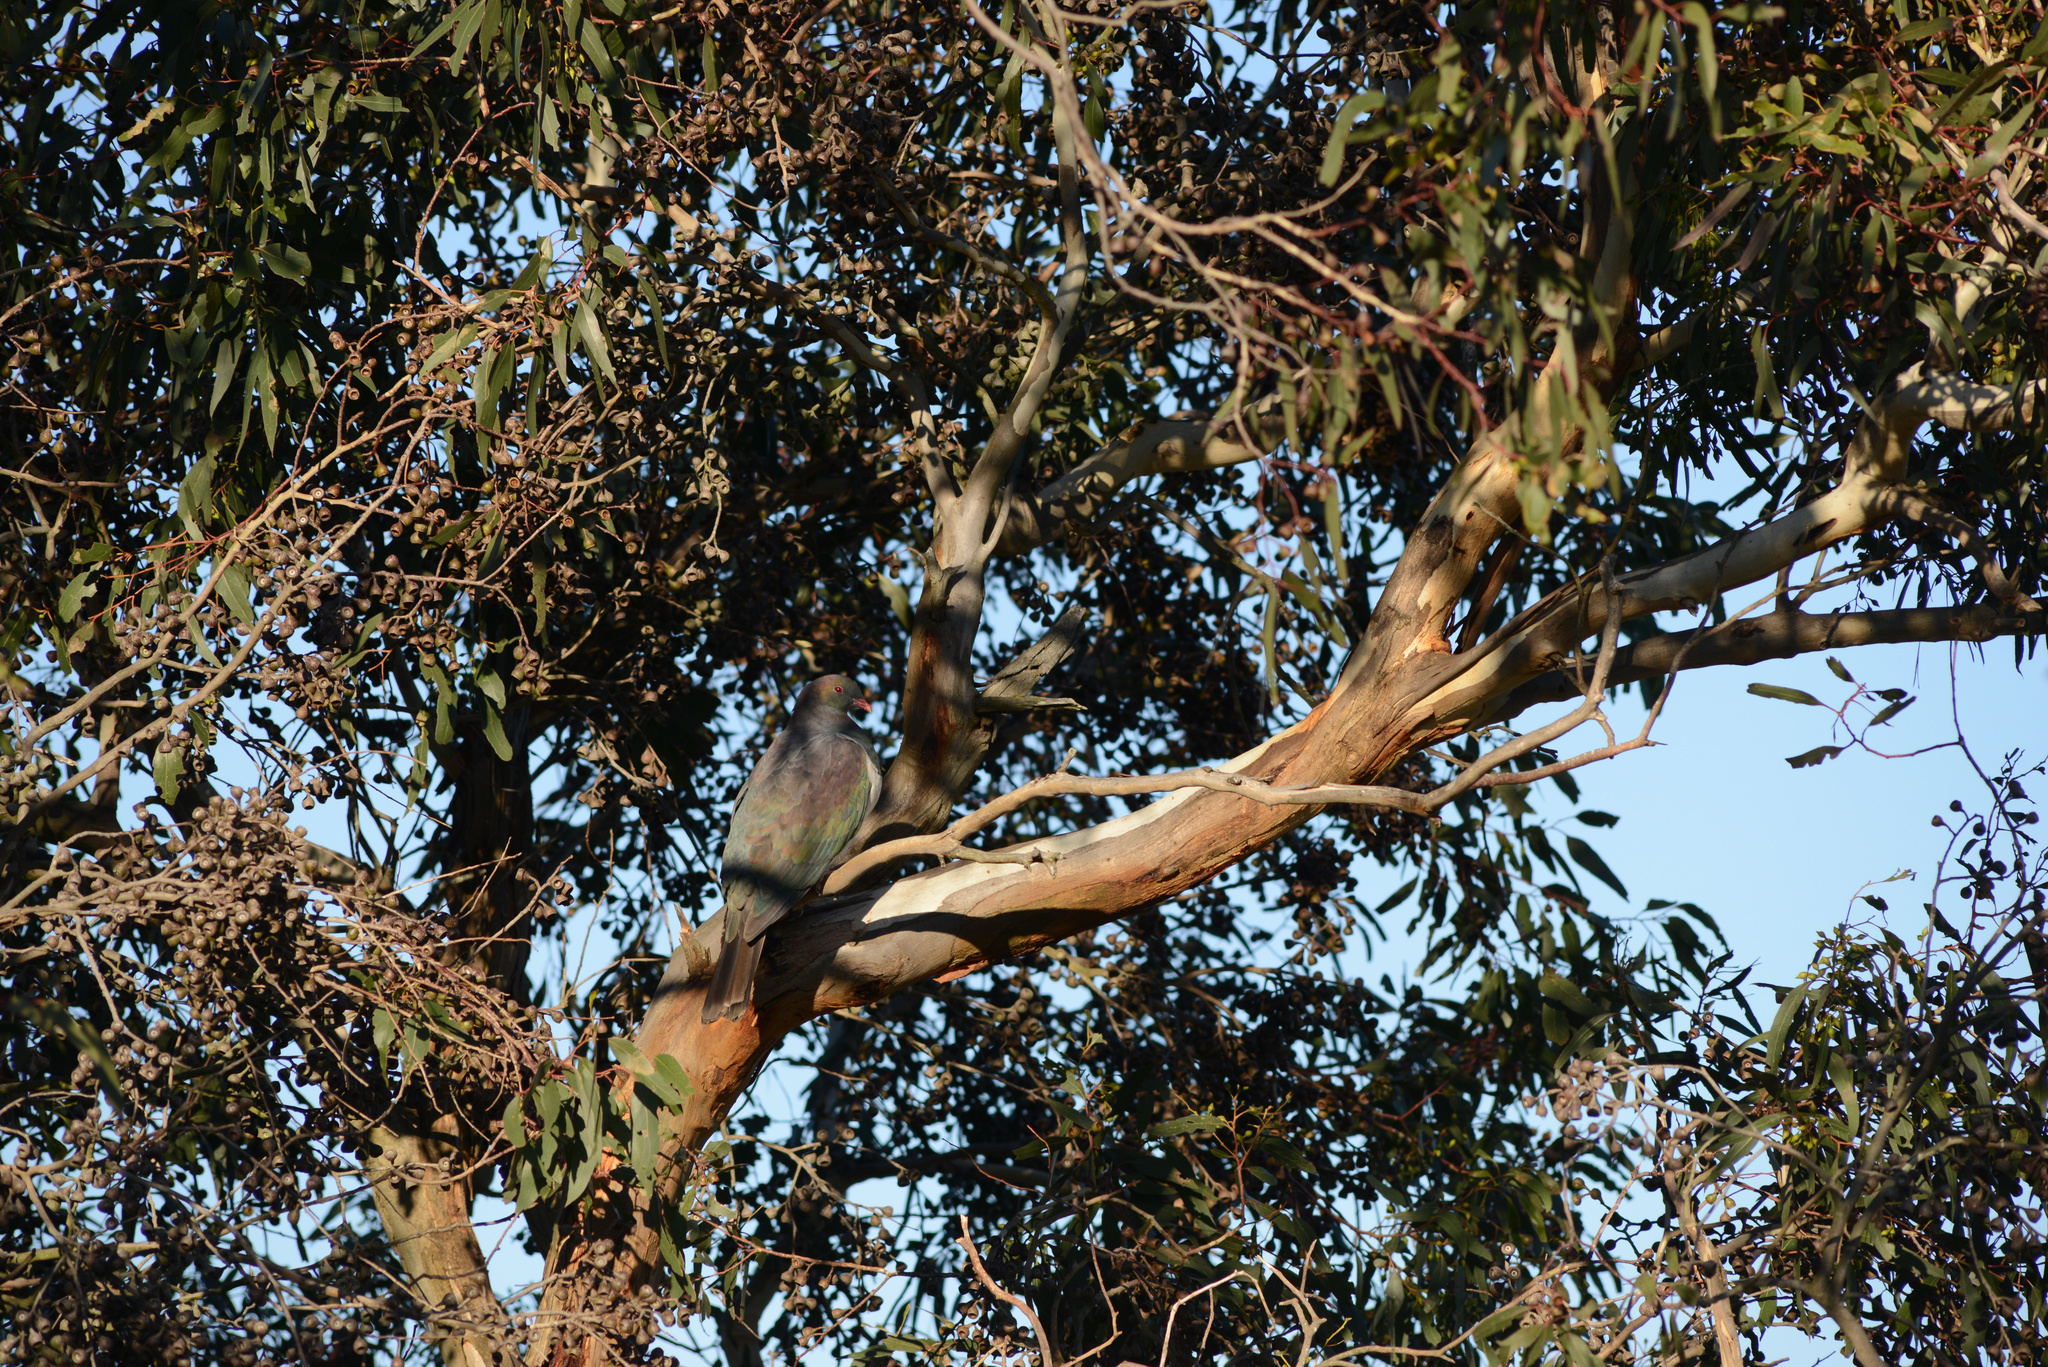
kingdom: Animalia
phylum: Chordata
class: Aves
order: Columbiformes
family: Columbidae
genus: Hemiphaga
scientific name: Hemiphaga novaeseelandiae
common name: New zealand pigeon
